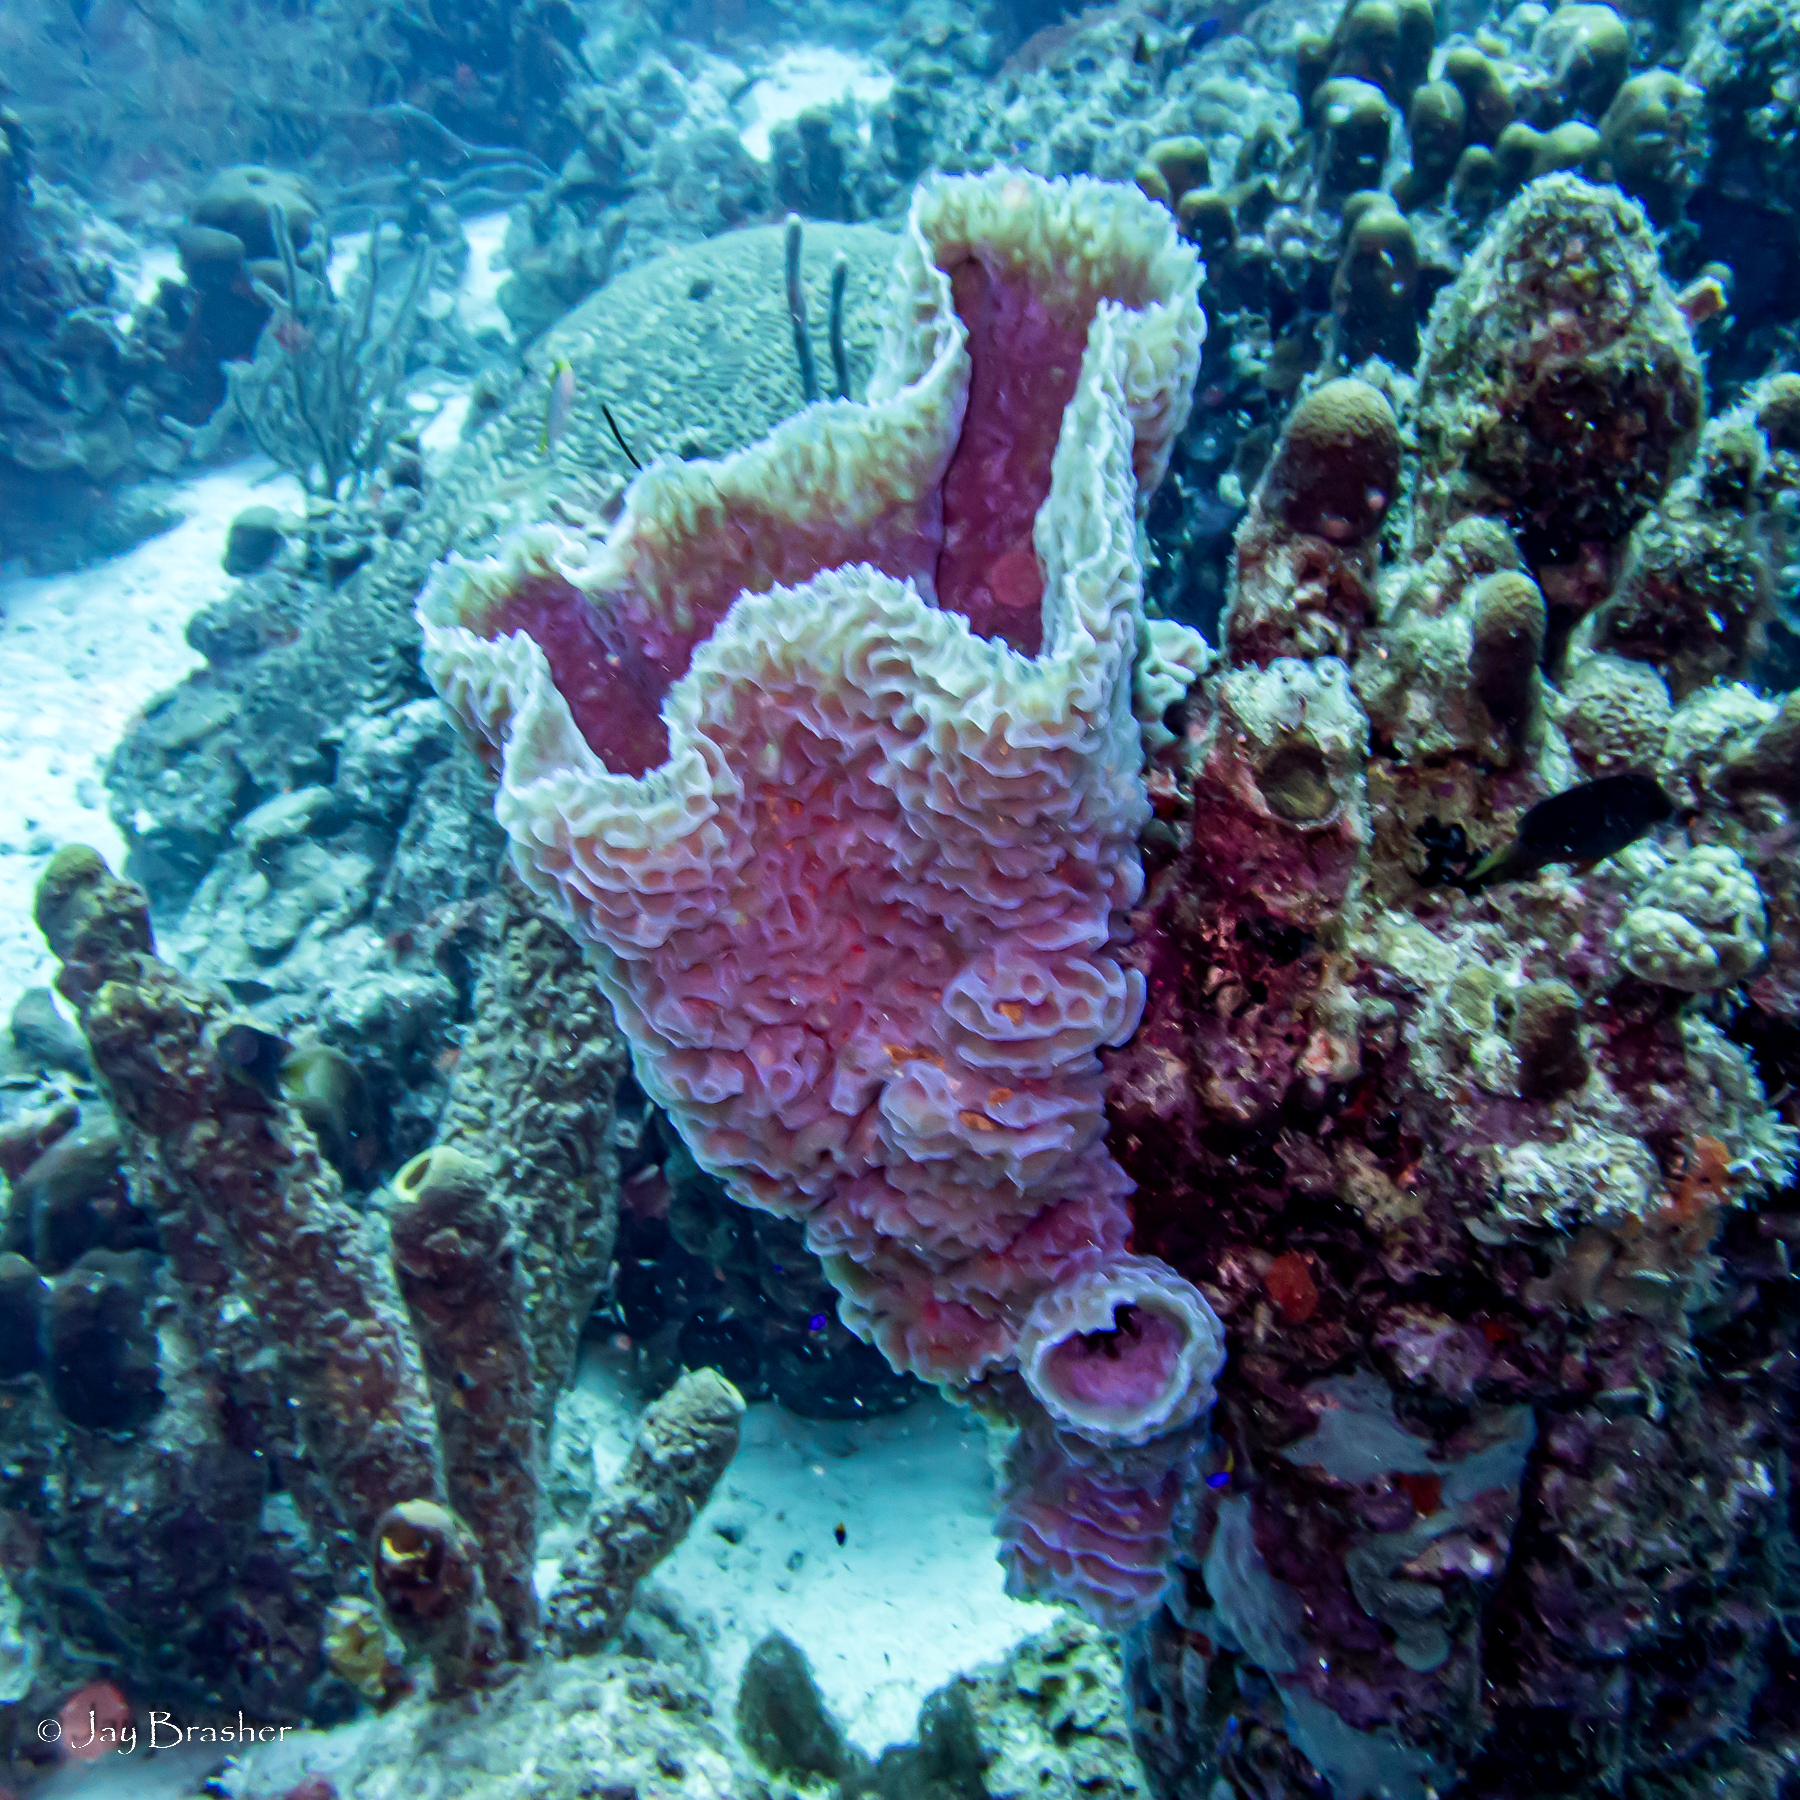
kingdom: Animalia
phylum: Porifera
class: Demospongiae
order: Haplosclerida
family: Callyspongiidae
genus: Callyspongia
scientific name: Callyspongia plicifera
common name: Azure vase sponge
